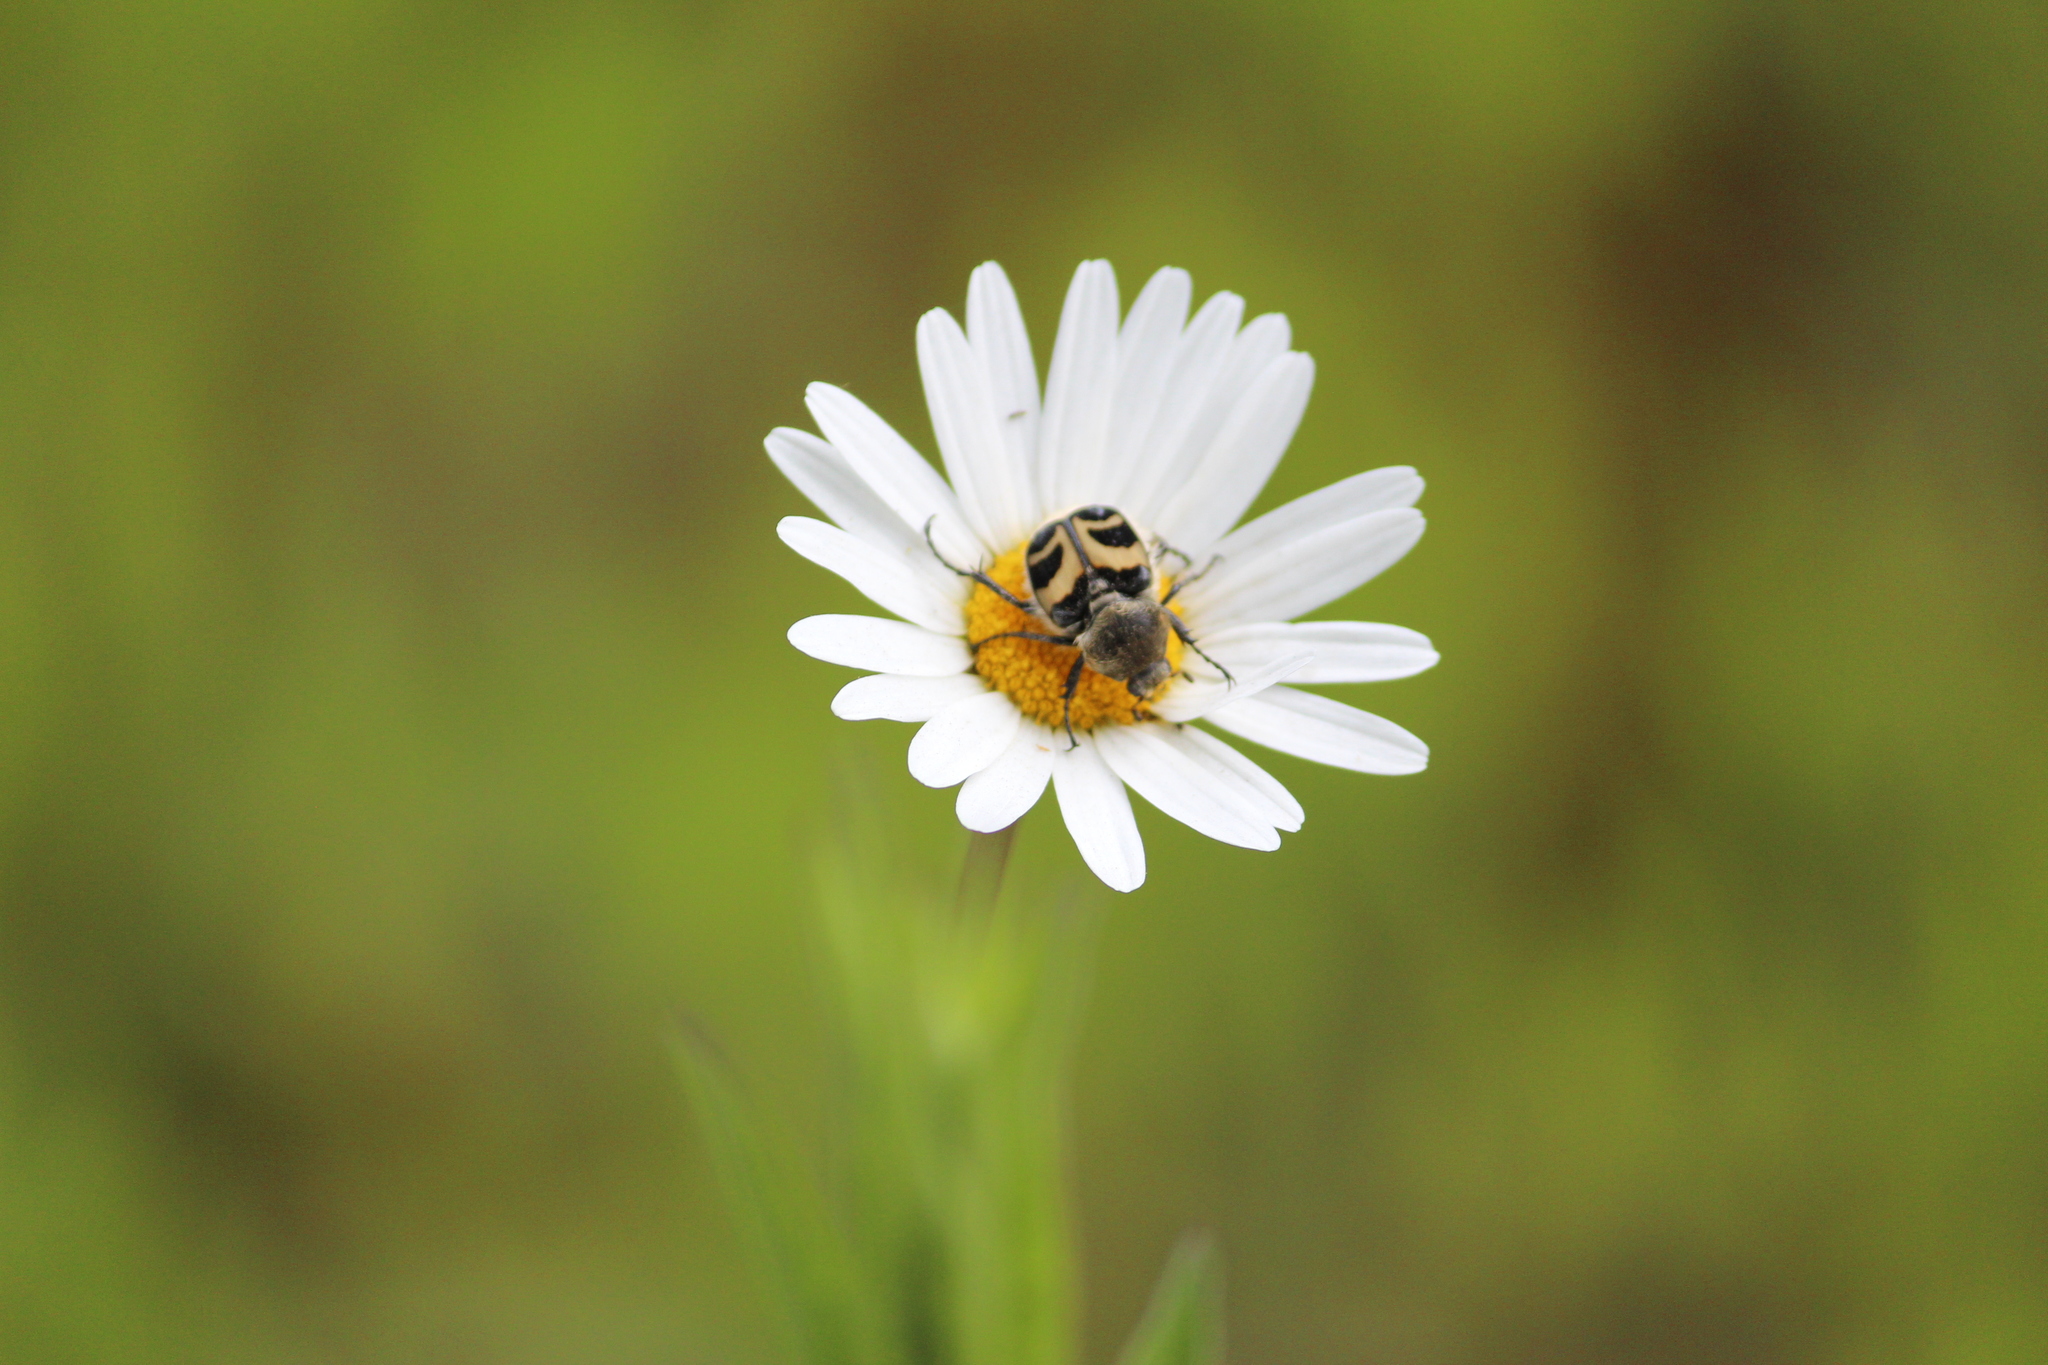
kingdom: Animalia
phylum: Arthropoda
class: Insecta
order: Coleoptera
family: Scarabaeidae
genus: Trichius
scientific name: Trichius fasciatus
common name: Bee beetle
